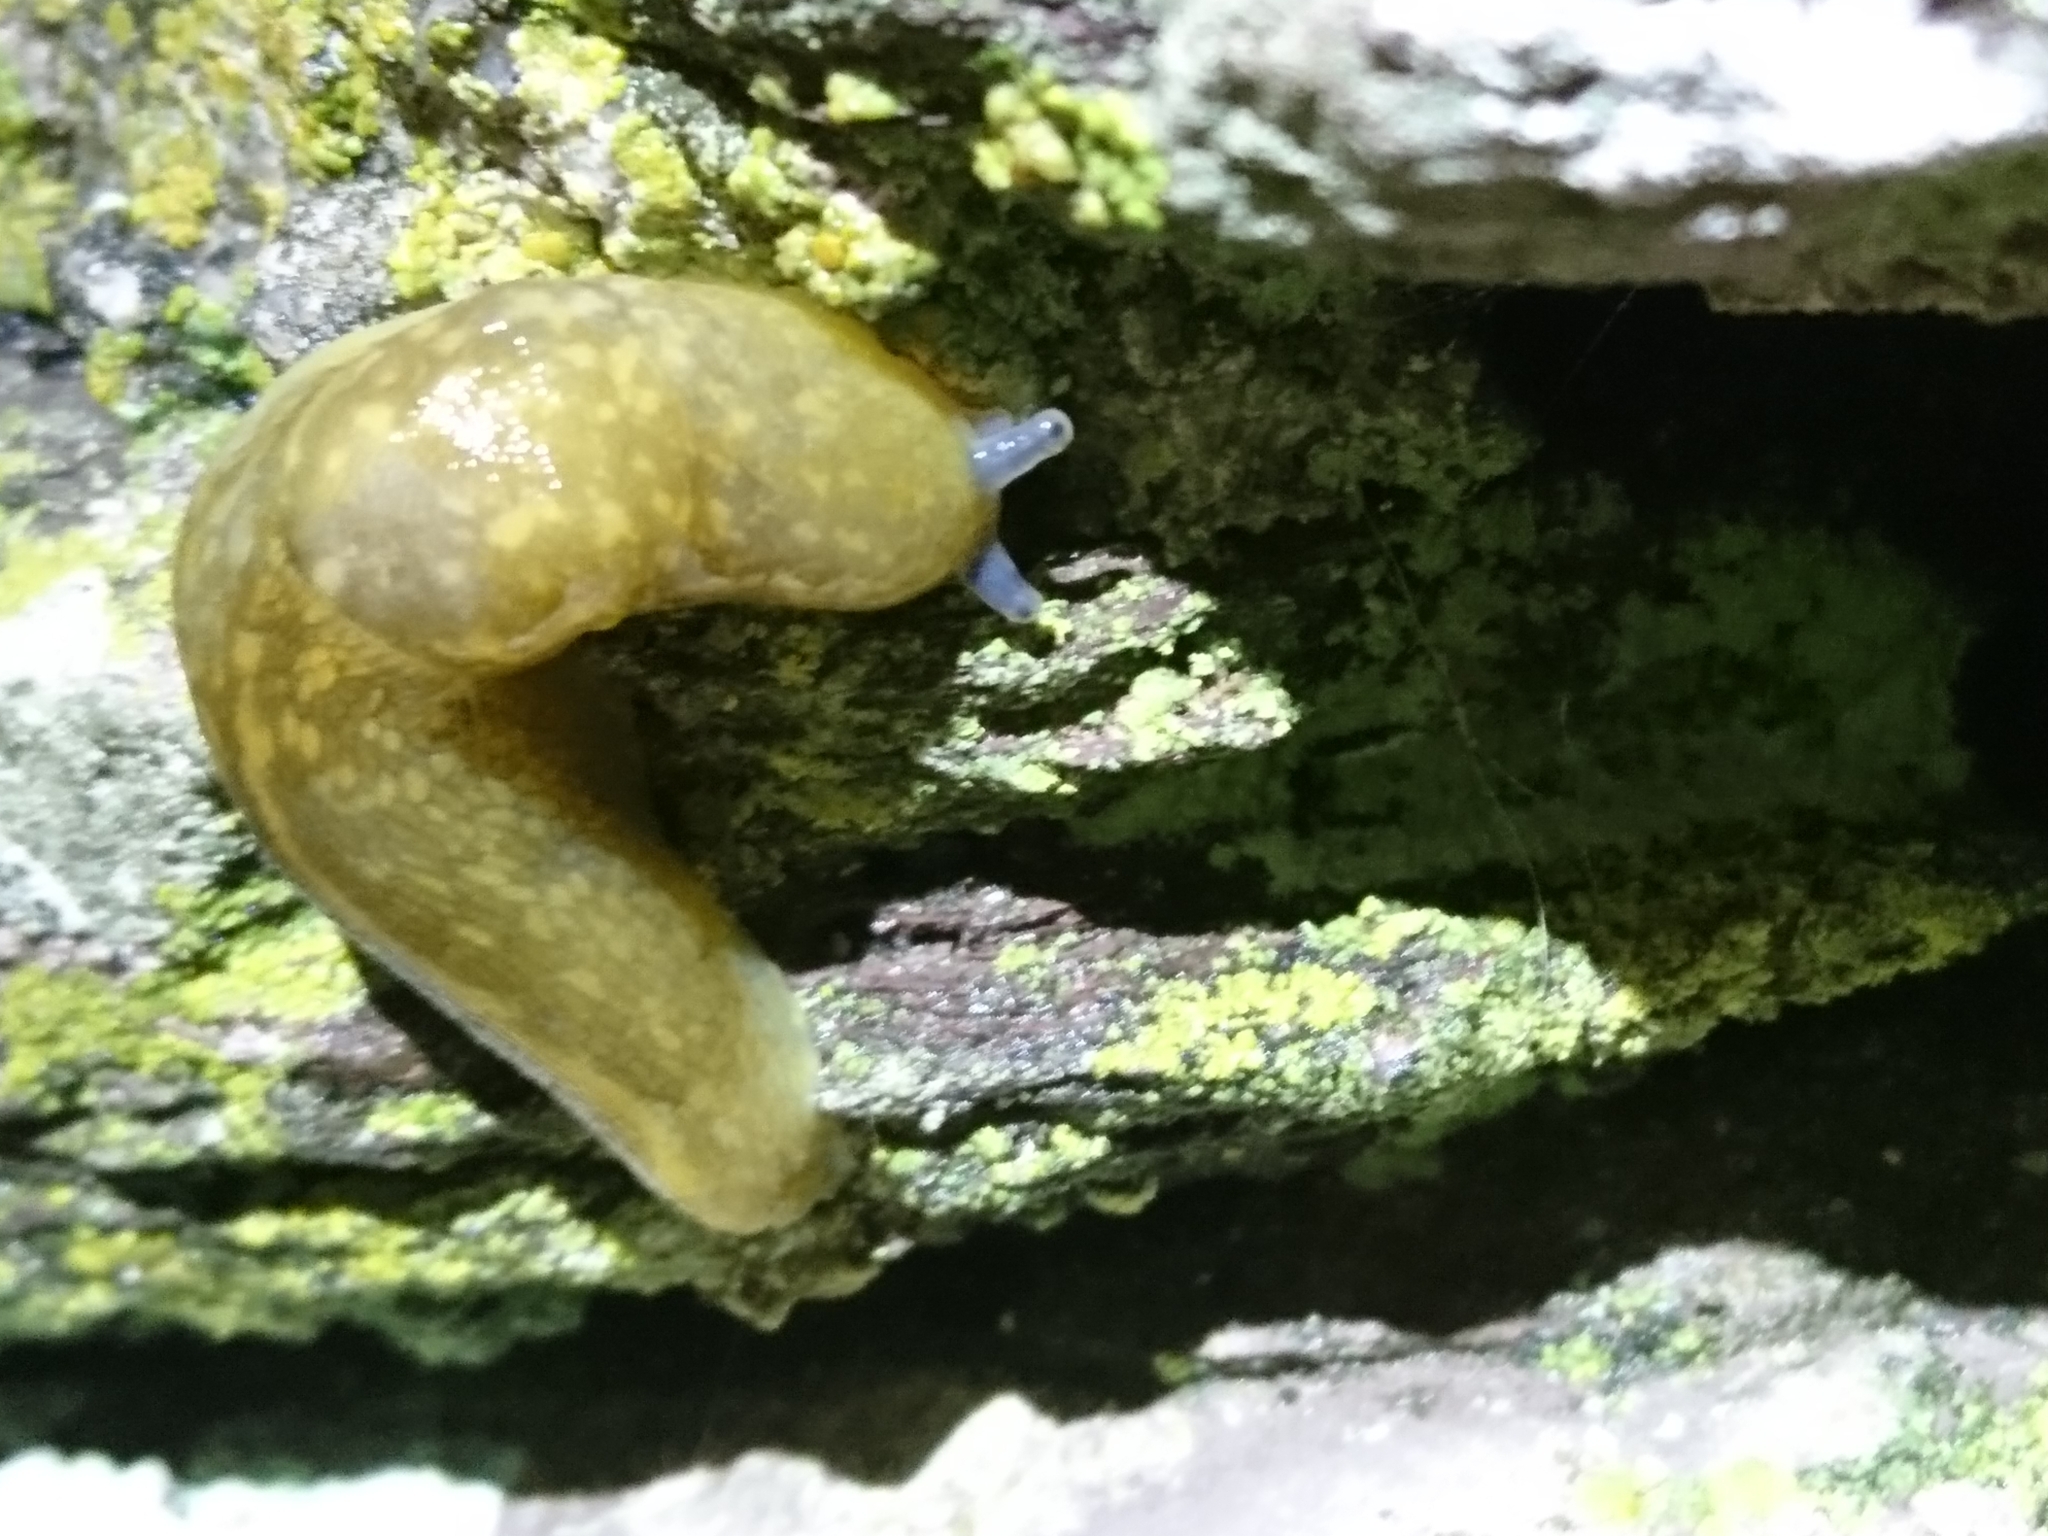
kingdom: Animalia
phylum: Mollusca
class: Gastropoda
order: Stylommatophora
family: Limacidae
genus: Limacus
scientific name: Limacus flavus
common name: Yellow gardenslug
